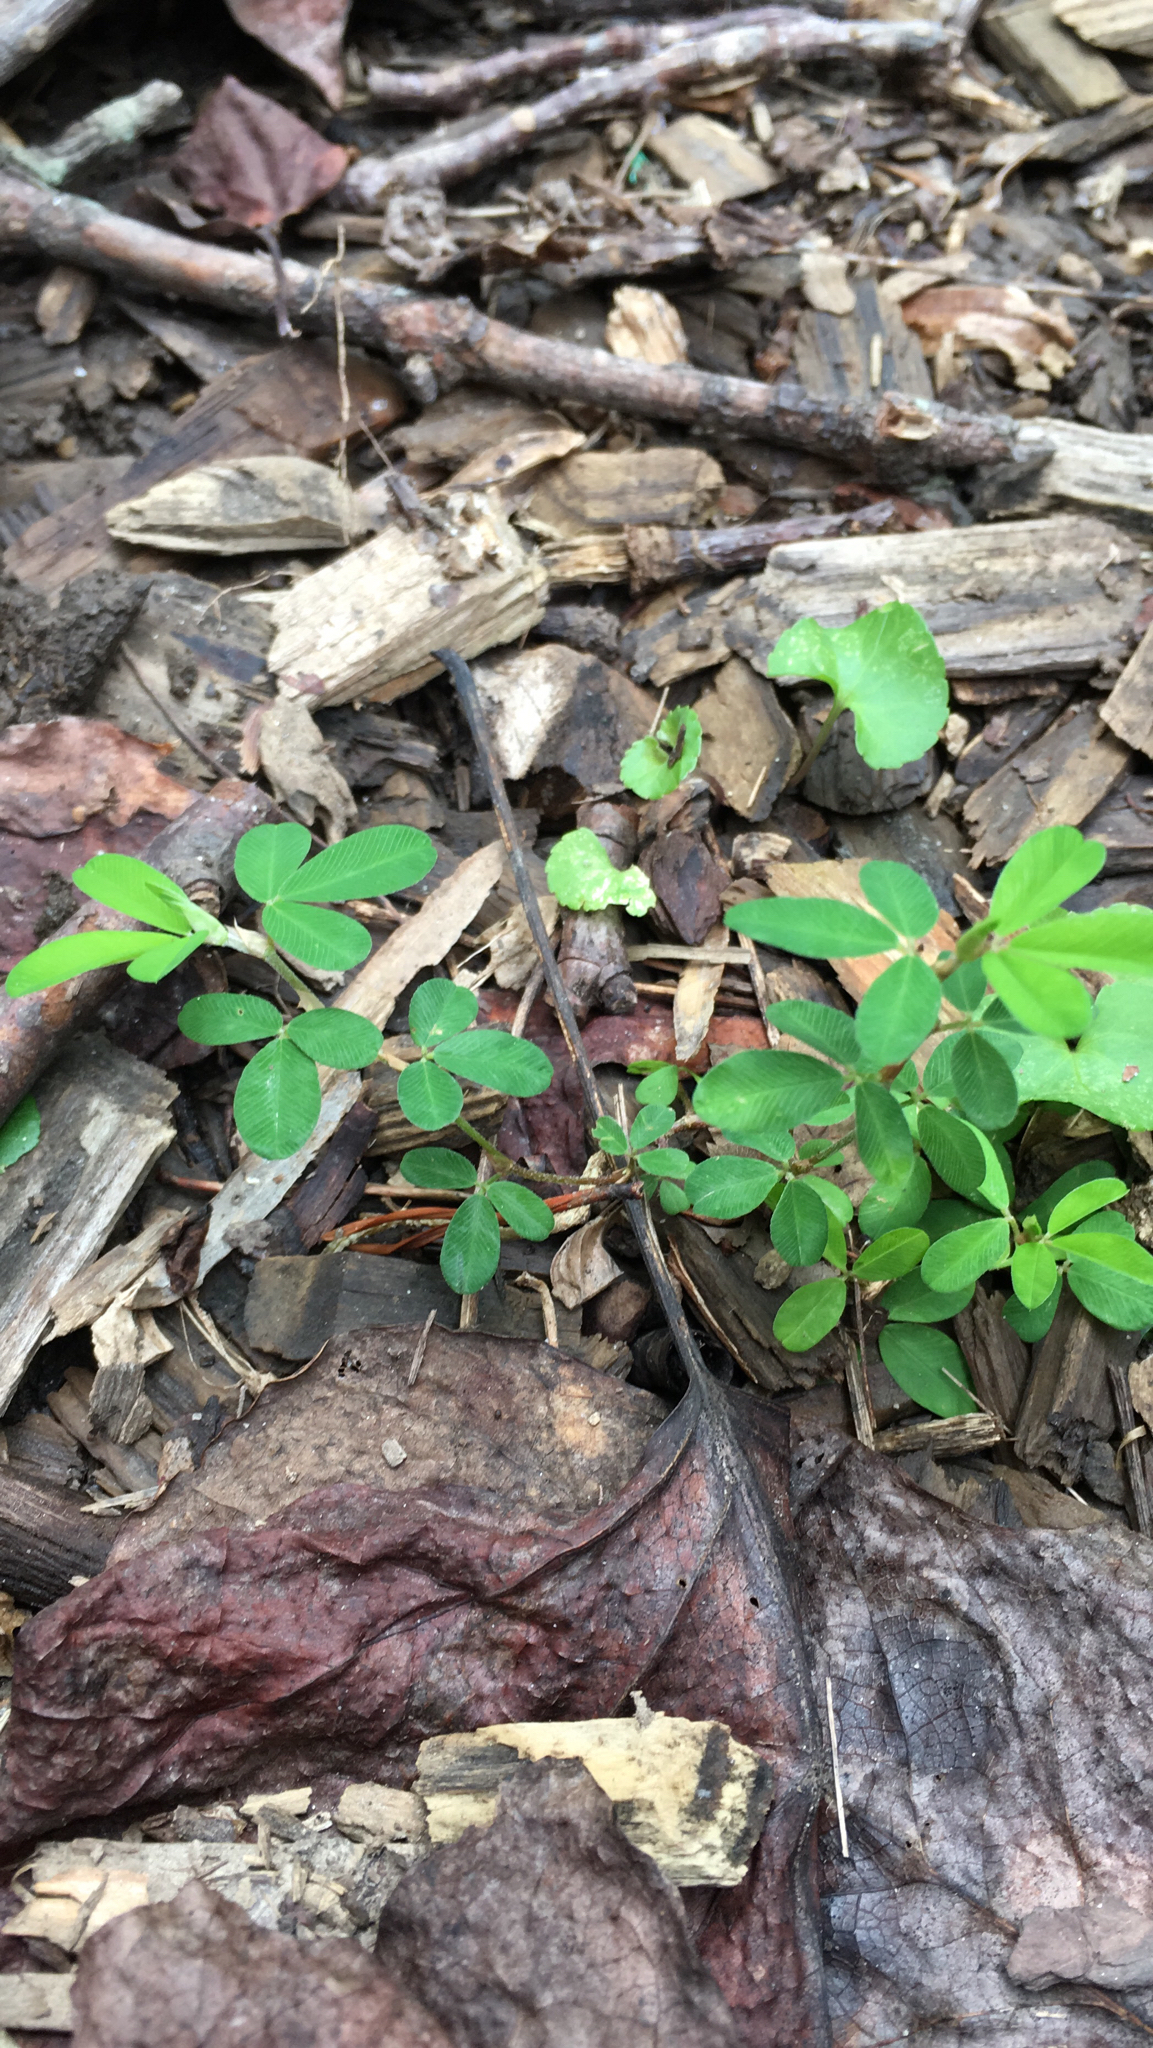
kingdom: Plantae
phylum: Tracheophyta
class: Magnoliopsida
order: Fabales
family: Fabaceae
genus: Kummerowia
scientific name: Kummerowia striata
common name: Japanese clover
